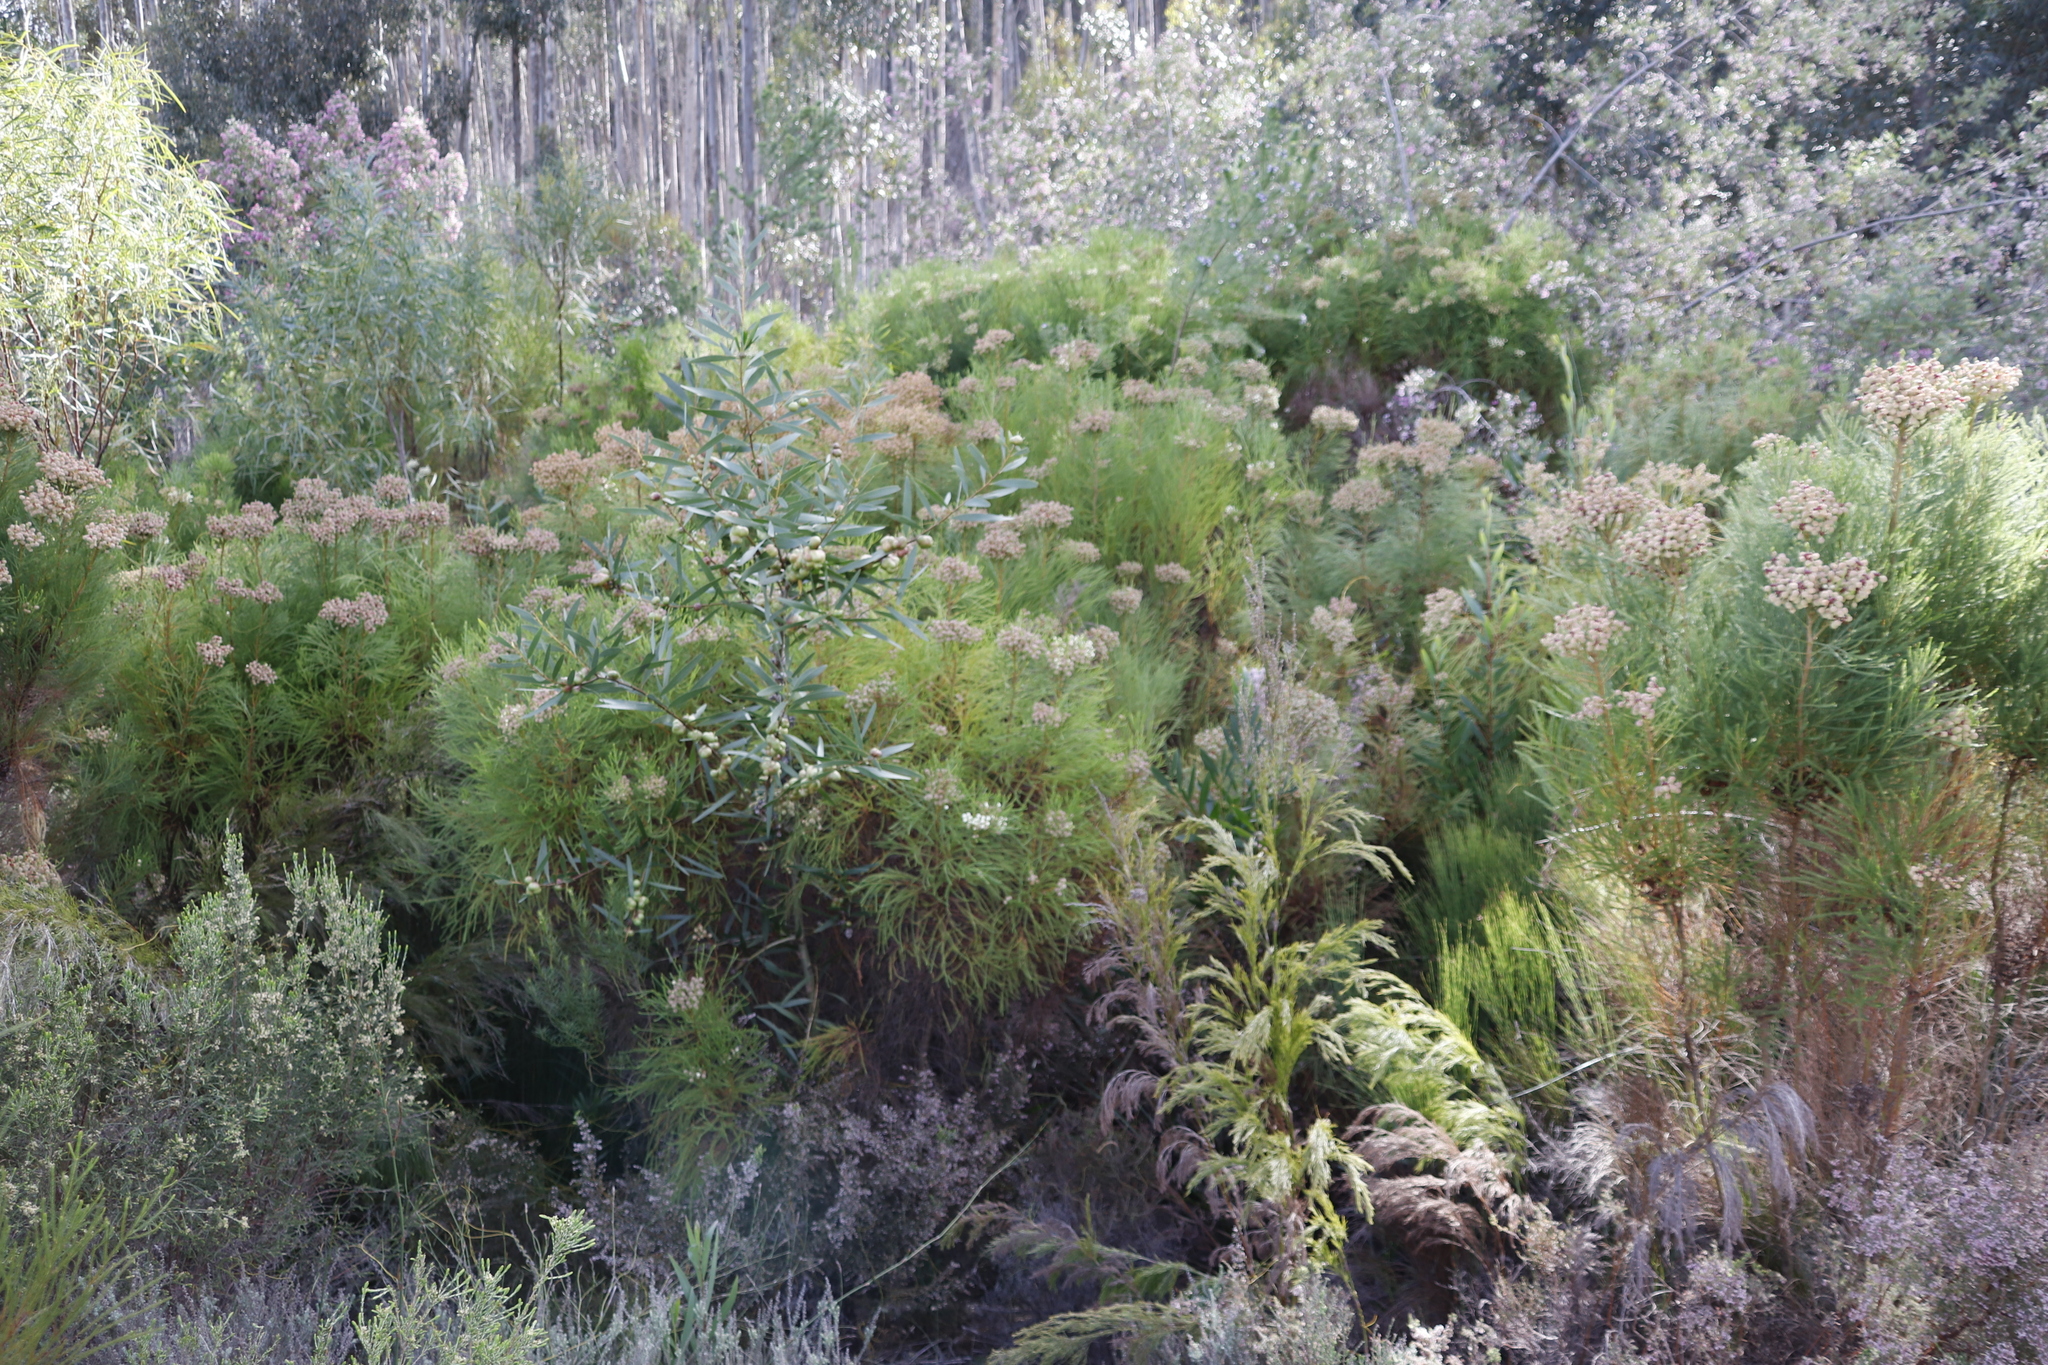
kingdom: Plantae
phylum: Tracheophyta
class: Magnoliopsida
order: Fabales
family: Fabaceae
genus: Acacia
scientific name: Acacia longifolia
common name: Sydney golden wattle
